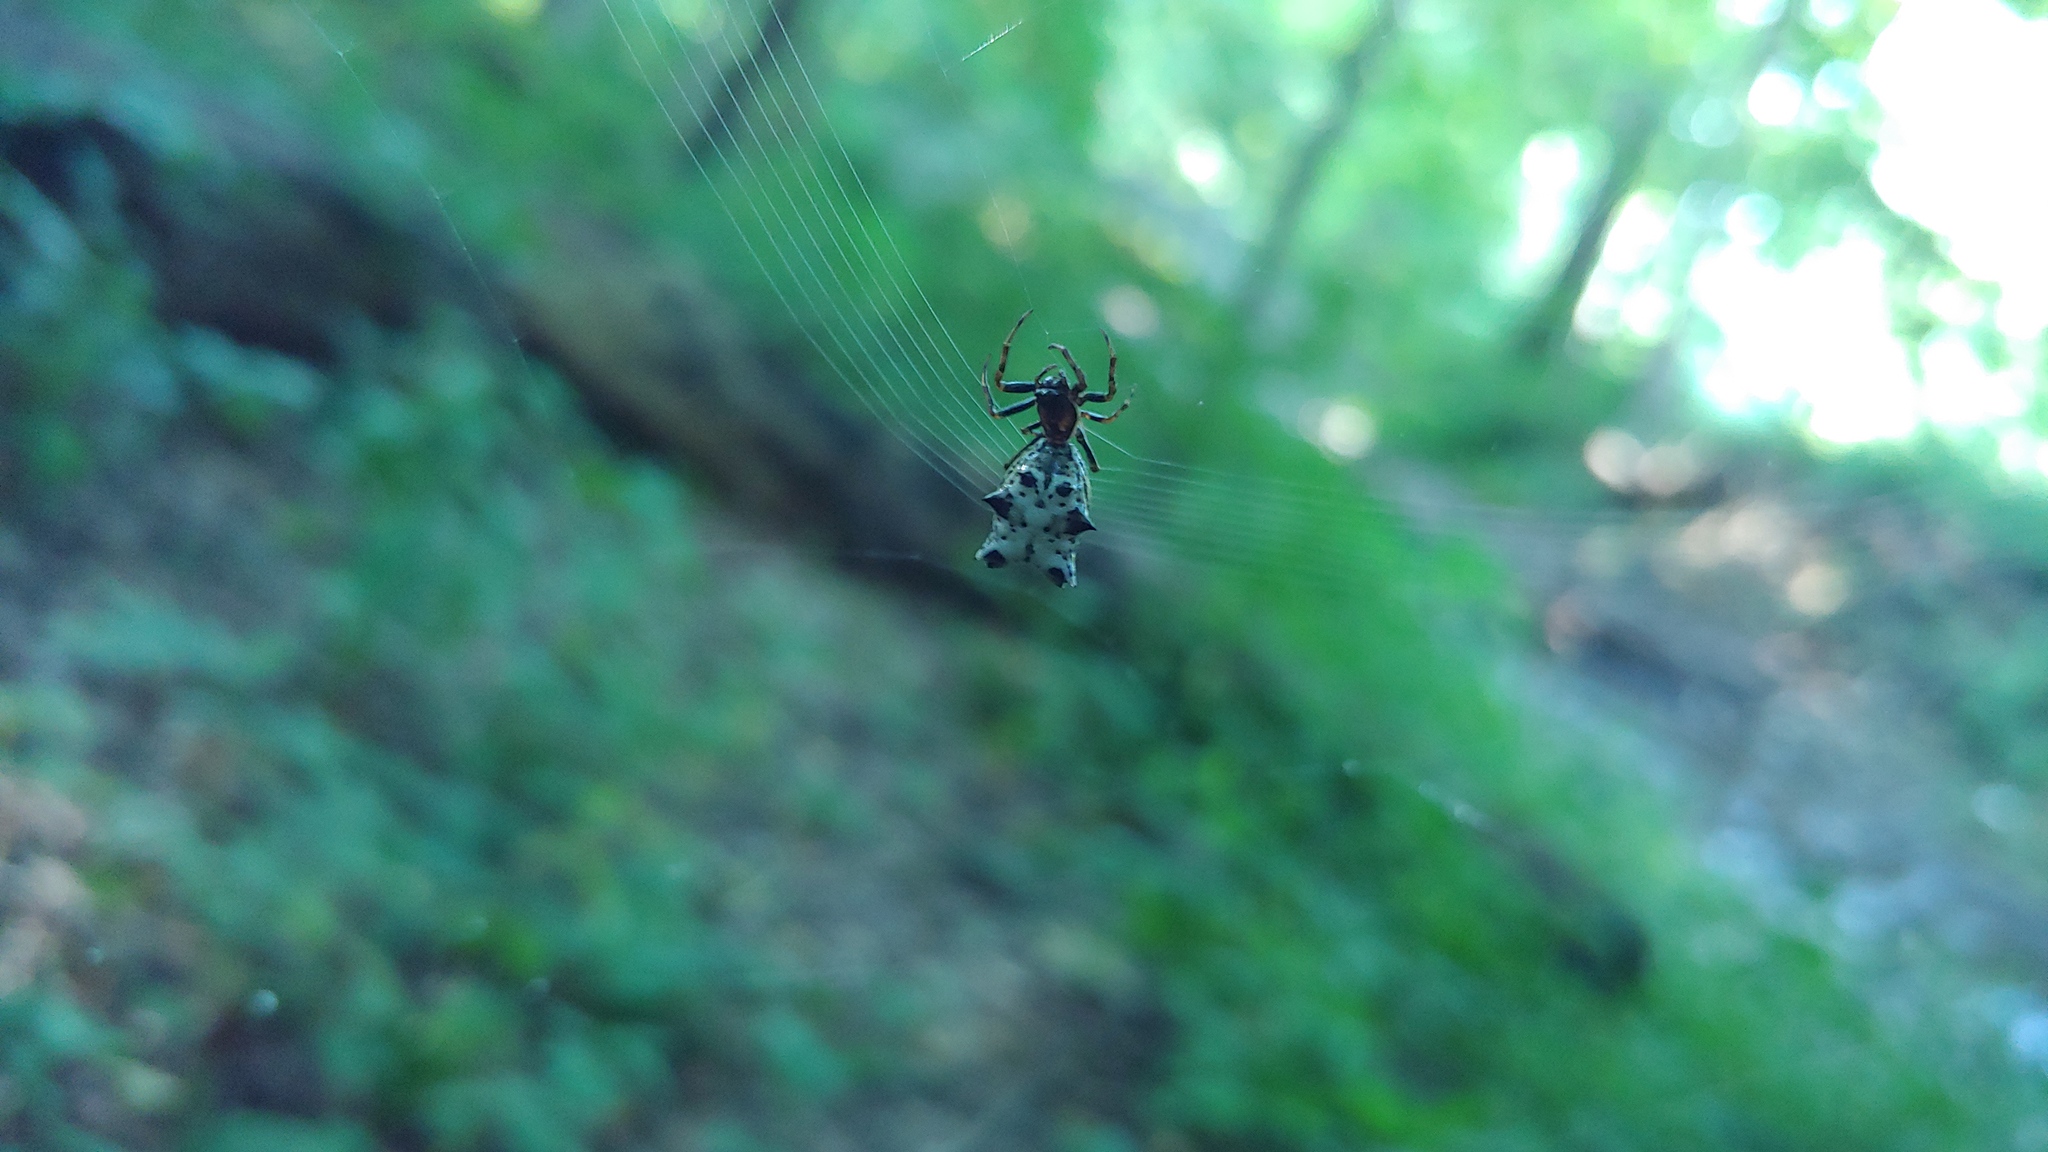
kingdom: Animalia
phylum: Arthropoda
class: Arachnida
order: Araneae
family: Araneidae
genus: Micrathena
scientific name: Micrathena gracilis
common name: Orb weavers
